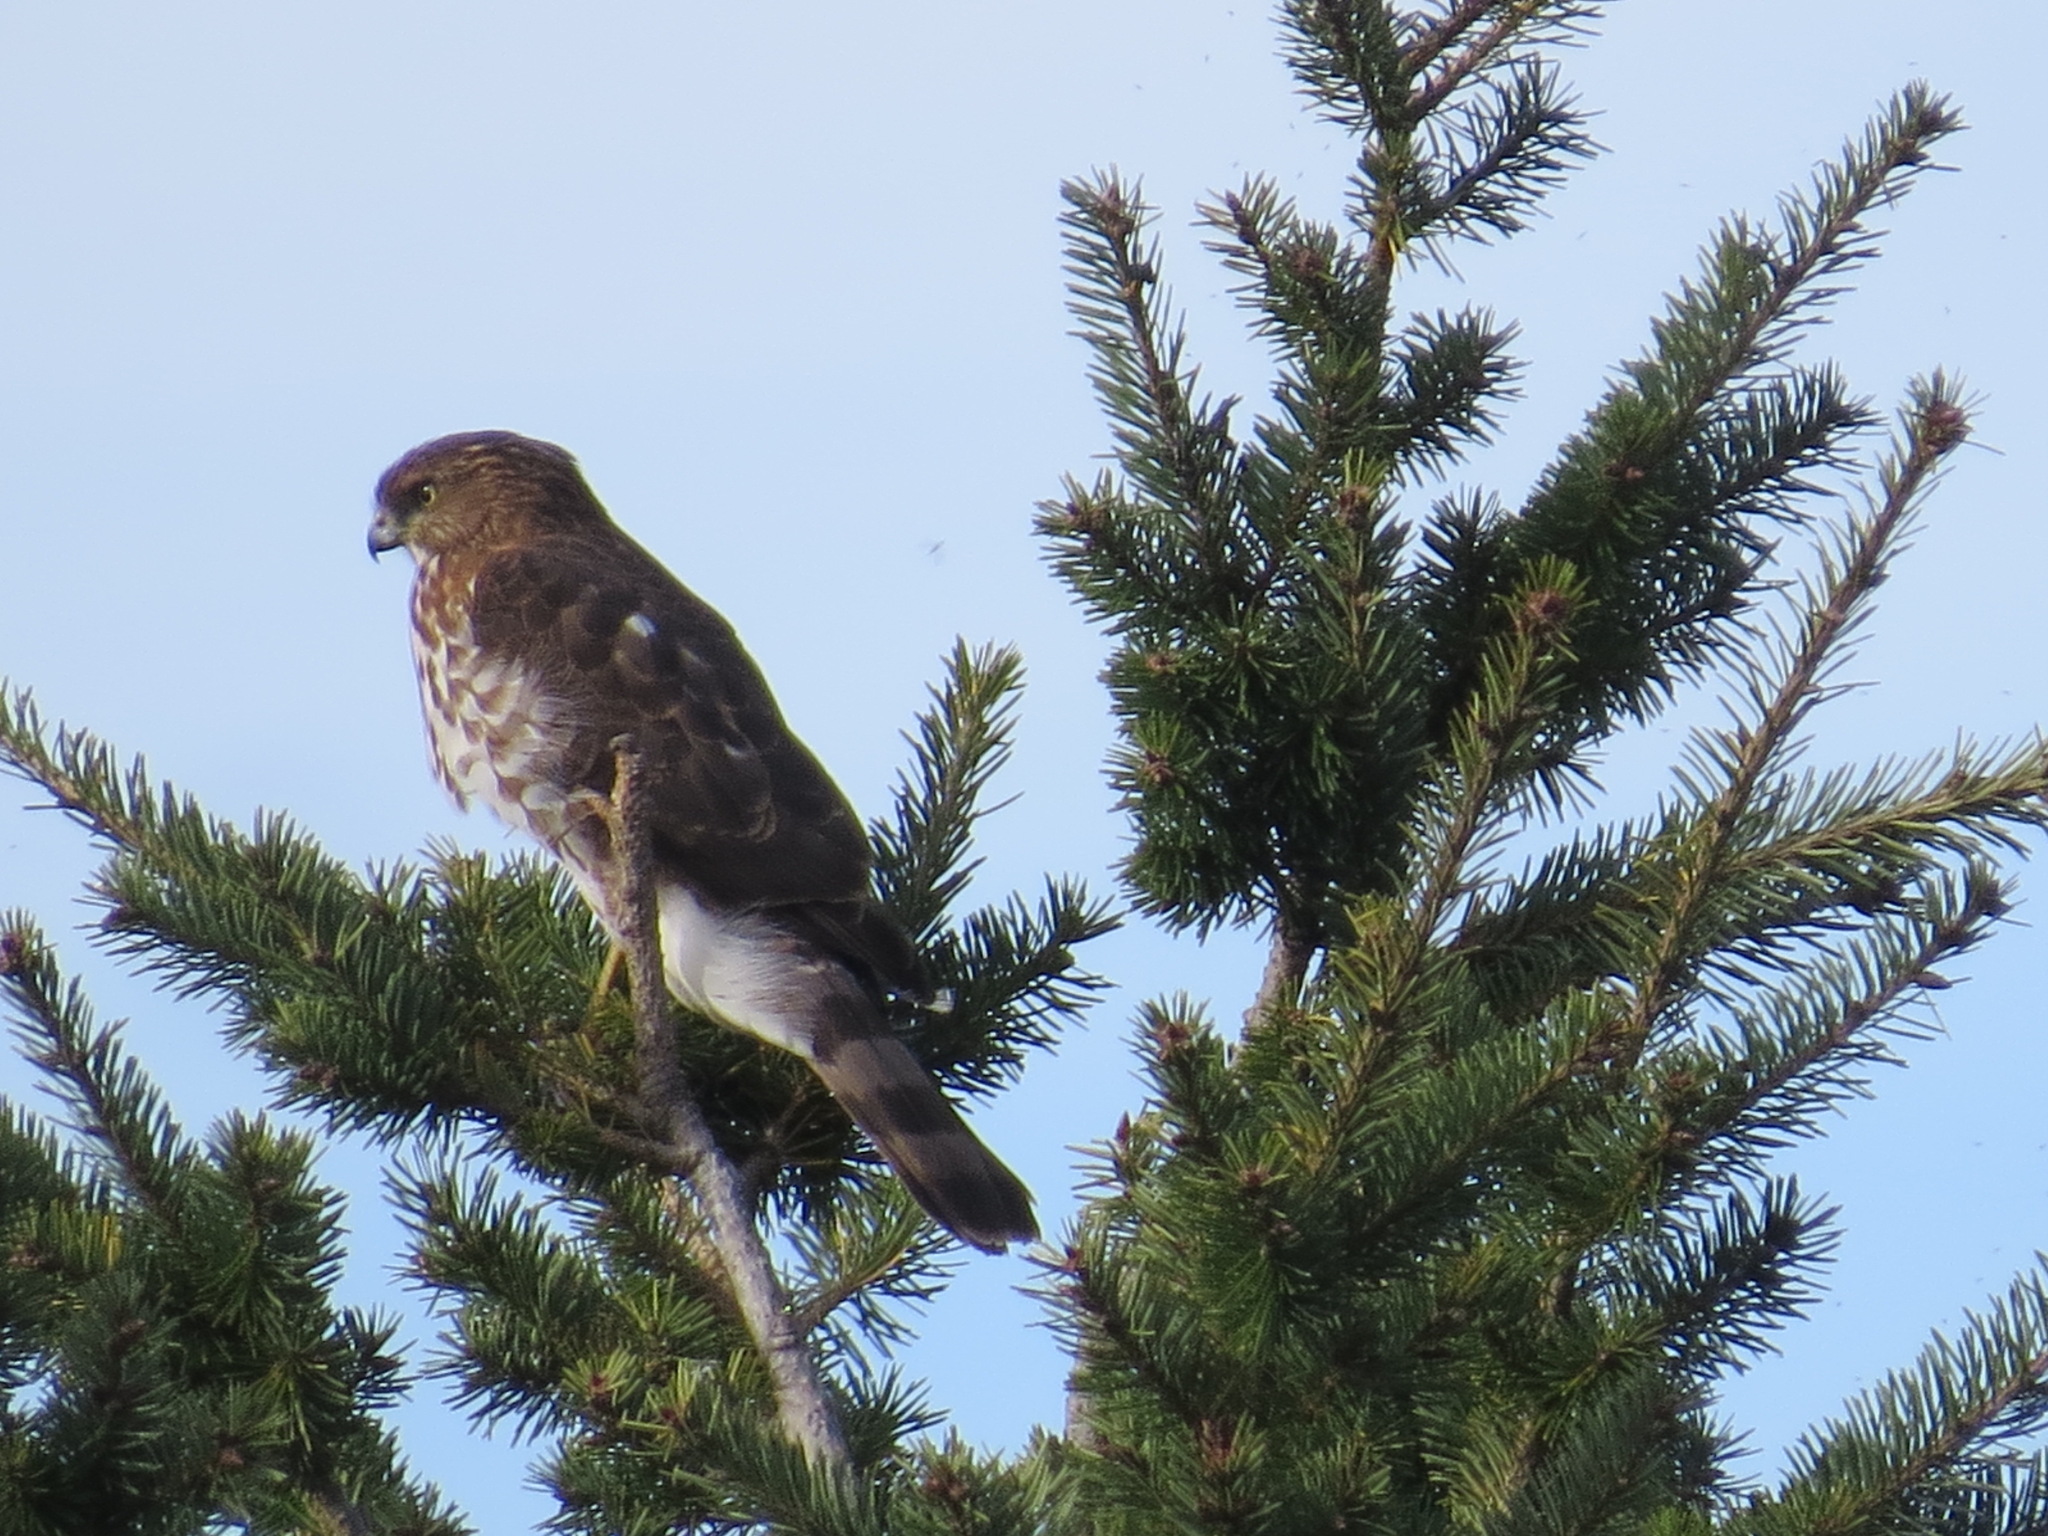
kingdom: Animalia
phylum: Chordata
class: Aves
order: Accipitriformes
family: Accipitridae
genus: Accipiter
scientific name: Accipiter cooperii
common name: Cooper's hawk
